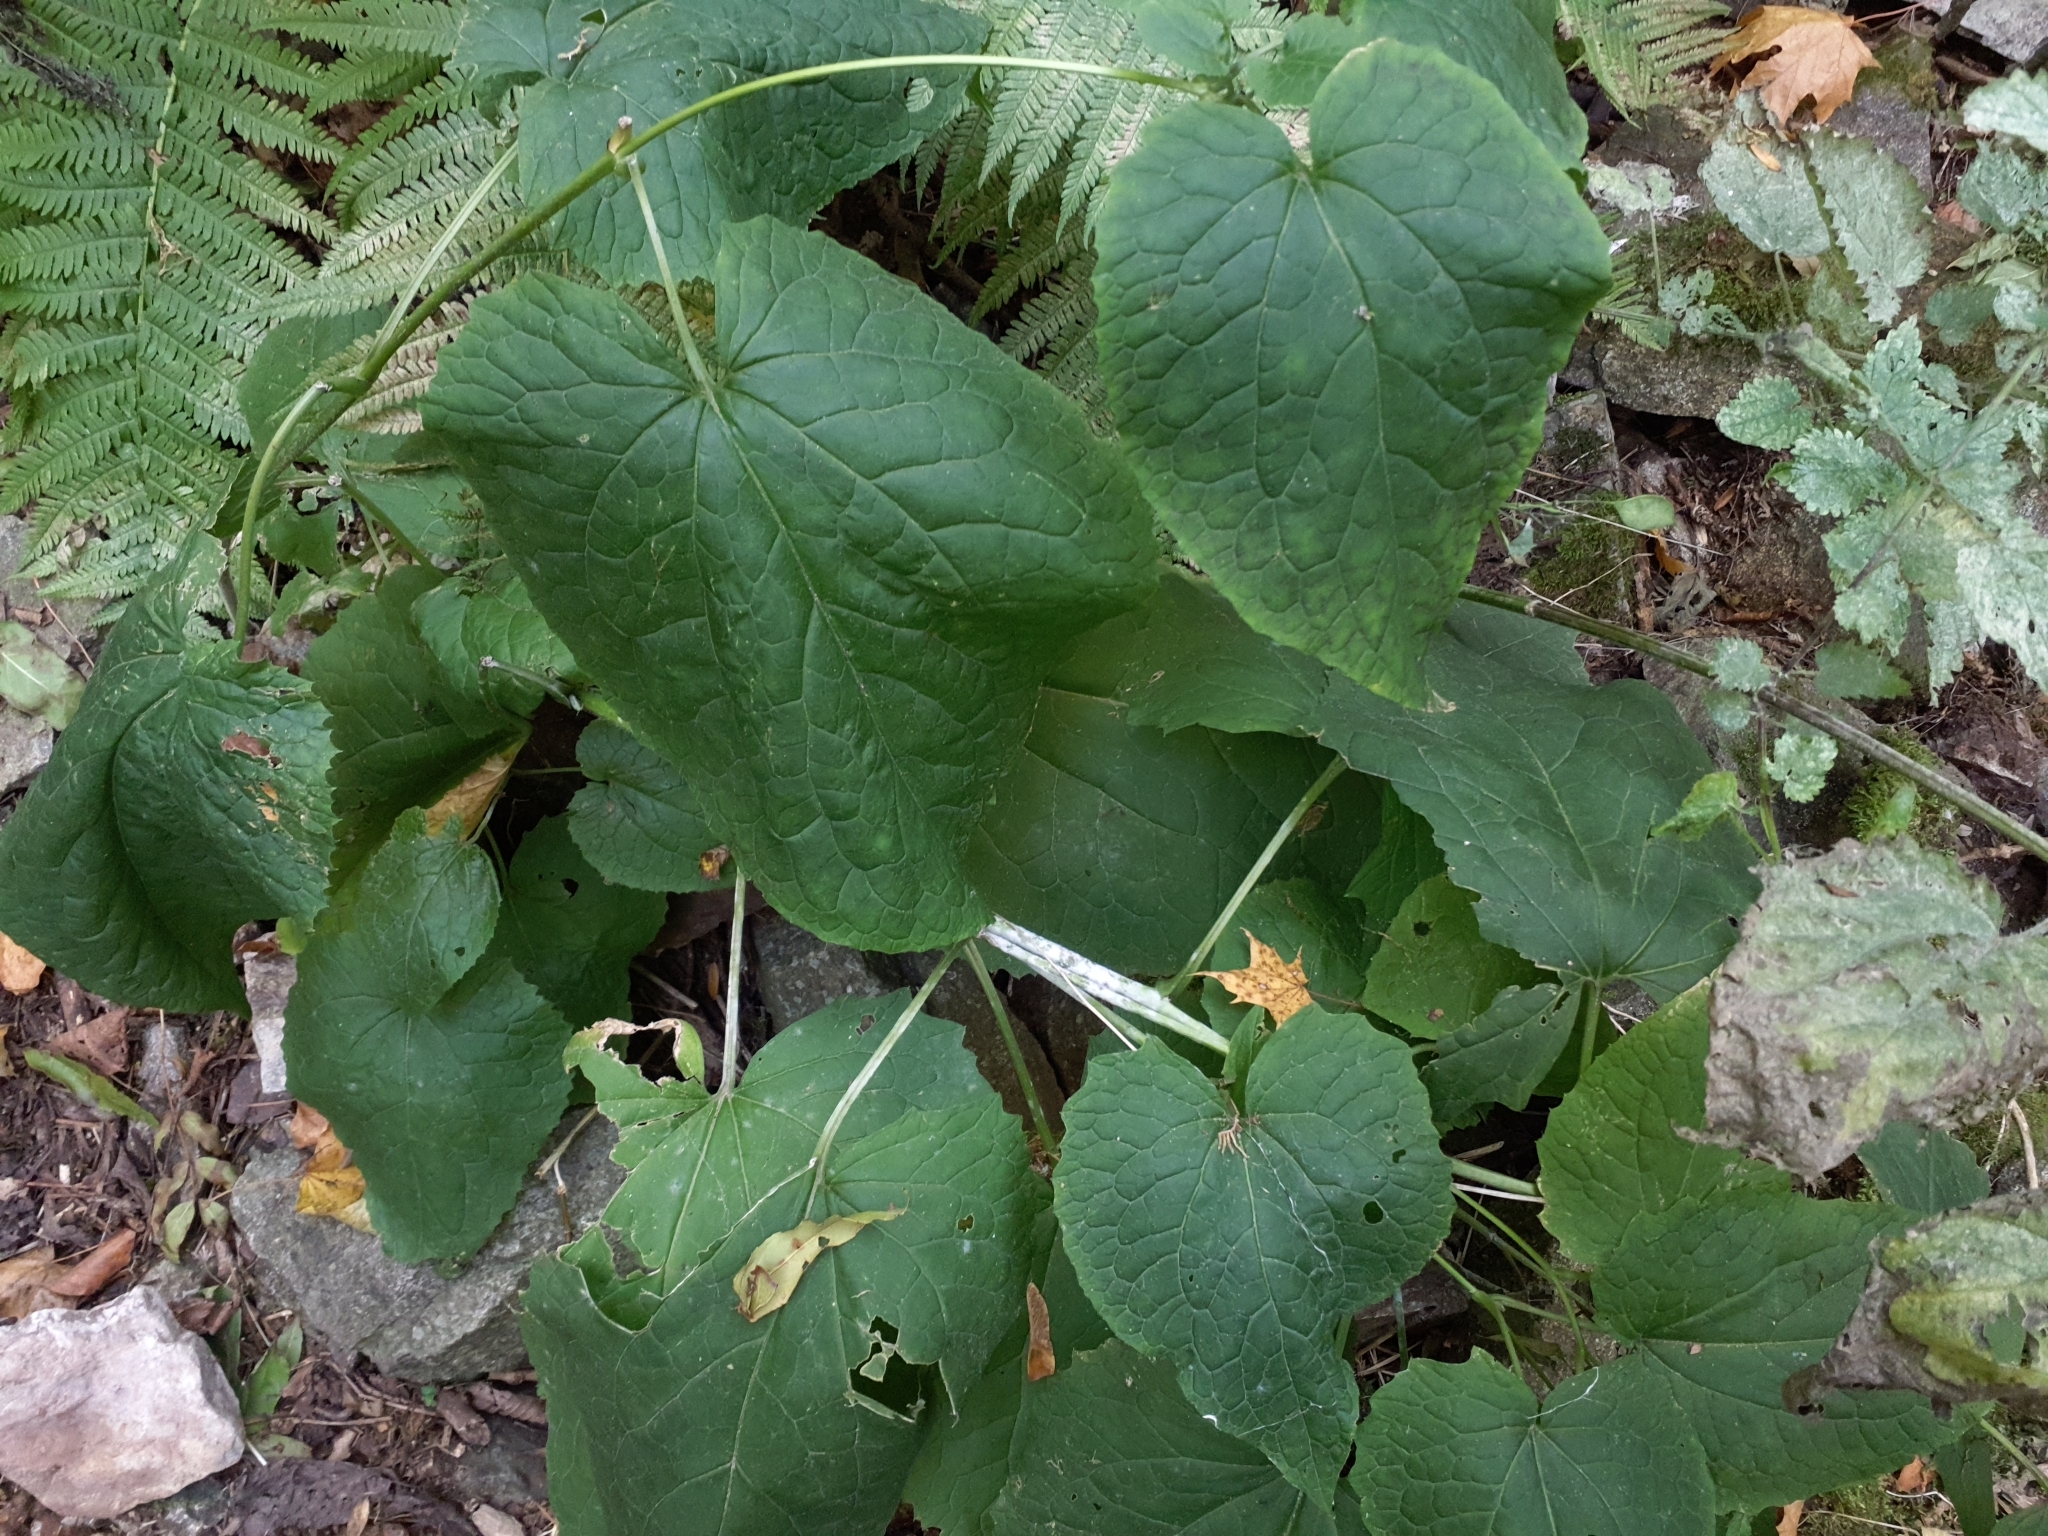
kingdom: Plantae
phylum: Tracheophyta
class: Magnoliopsida
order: Brassicales
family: Brassicaceae
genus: Lunaria
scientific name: Lunaria rediviva
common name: Perennial honesty
